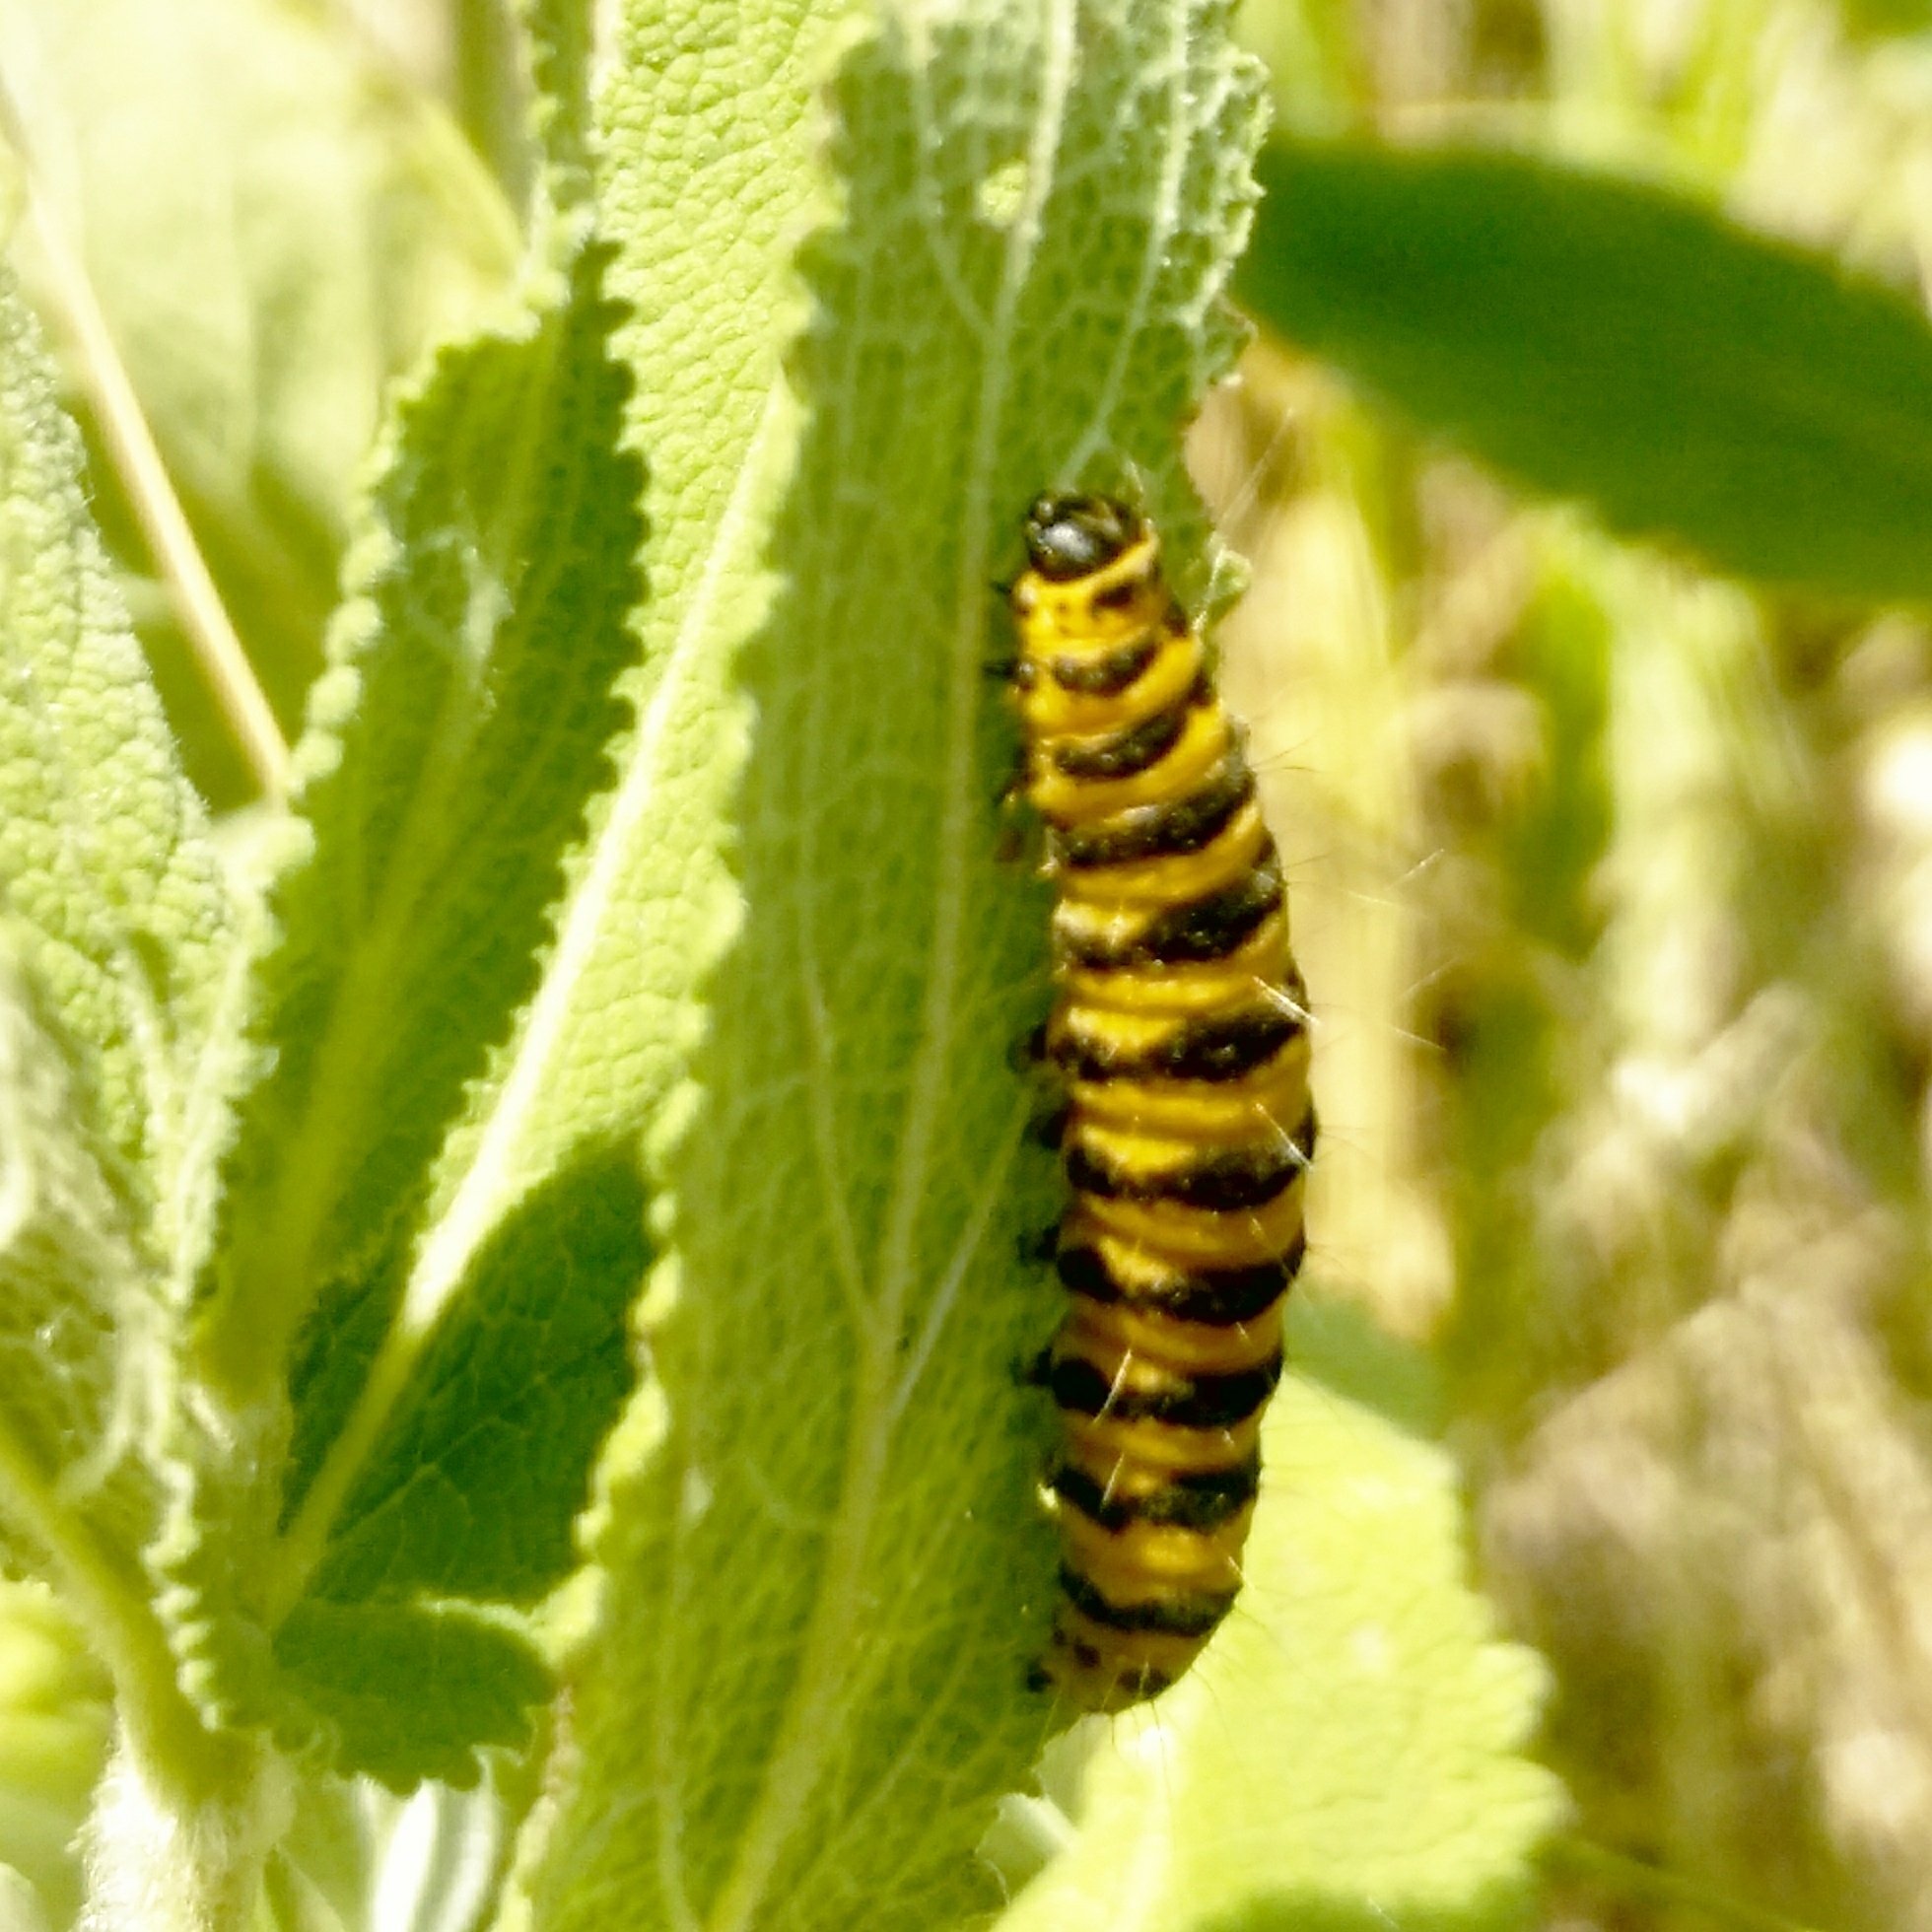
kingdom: Animalia
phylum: Arthropoda
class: Insecta
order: Lepidoptera
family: Erebidae
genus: Tyria
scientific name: Tyria jacobaeae
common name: Cinnabar
